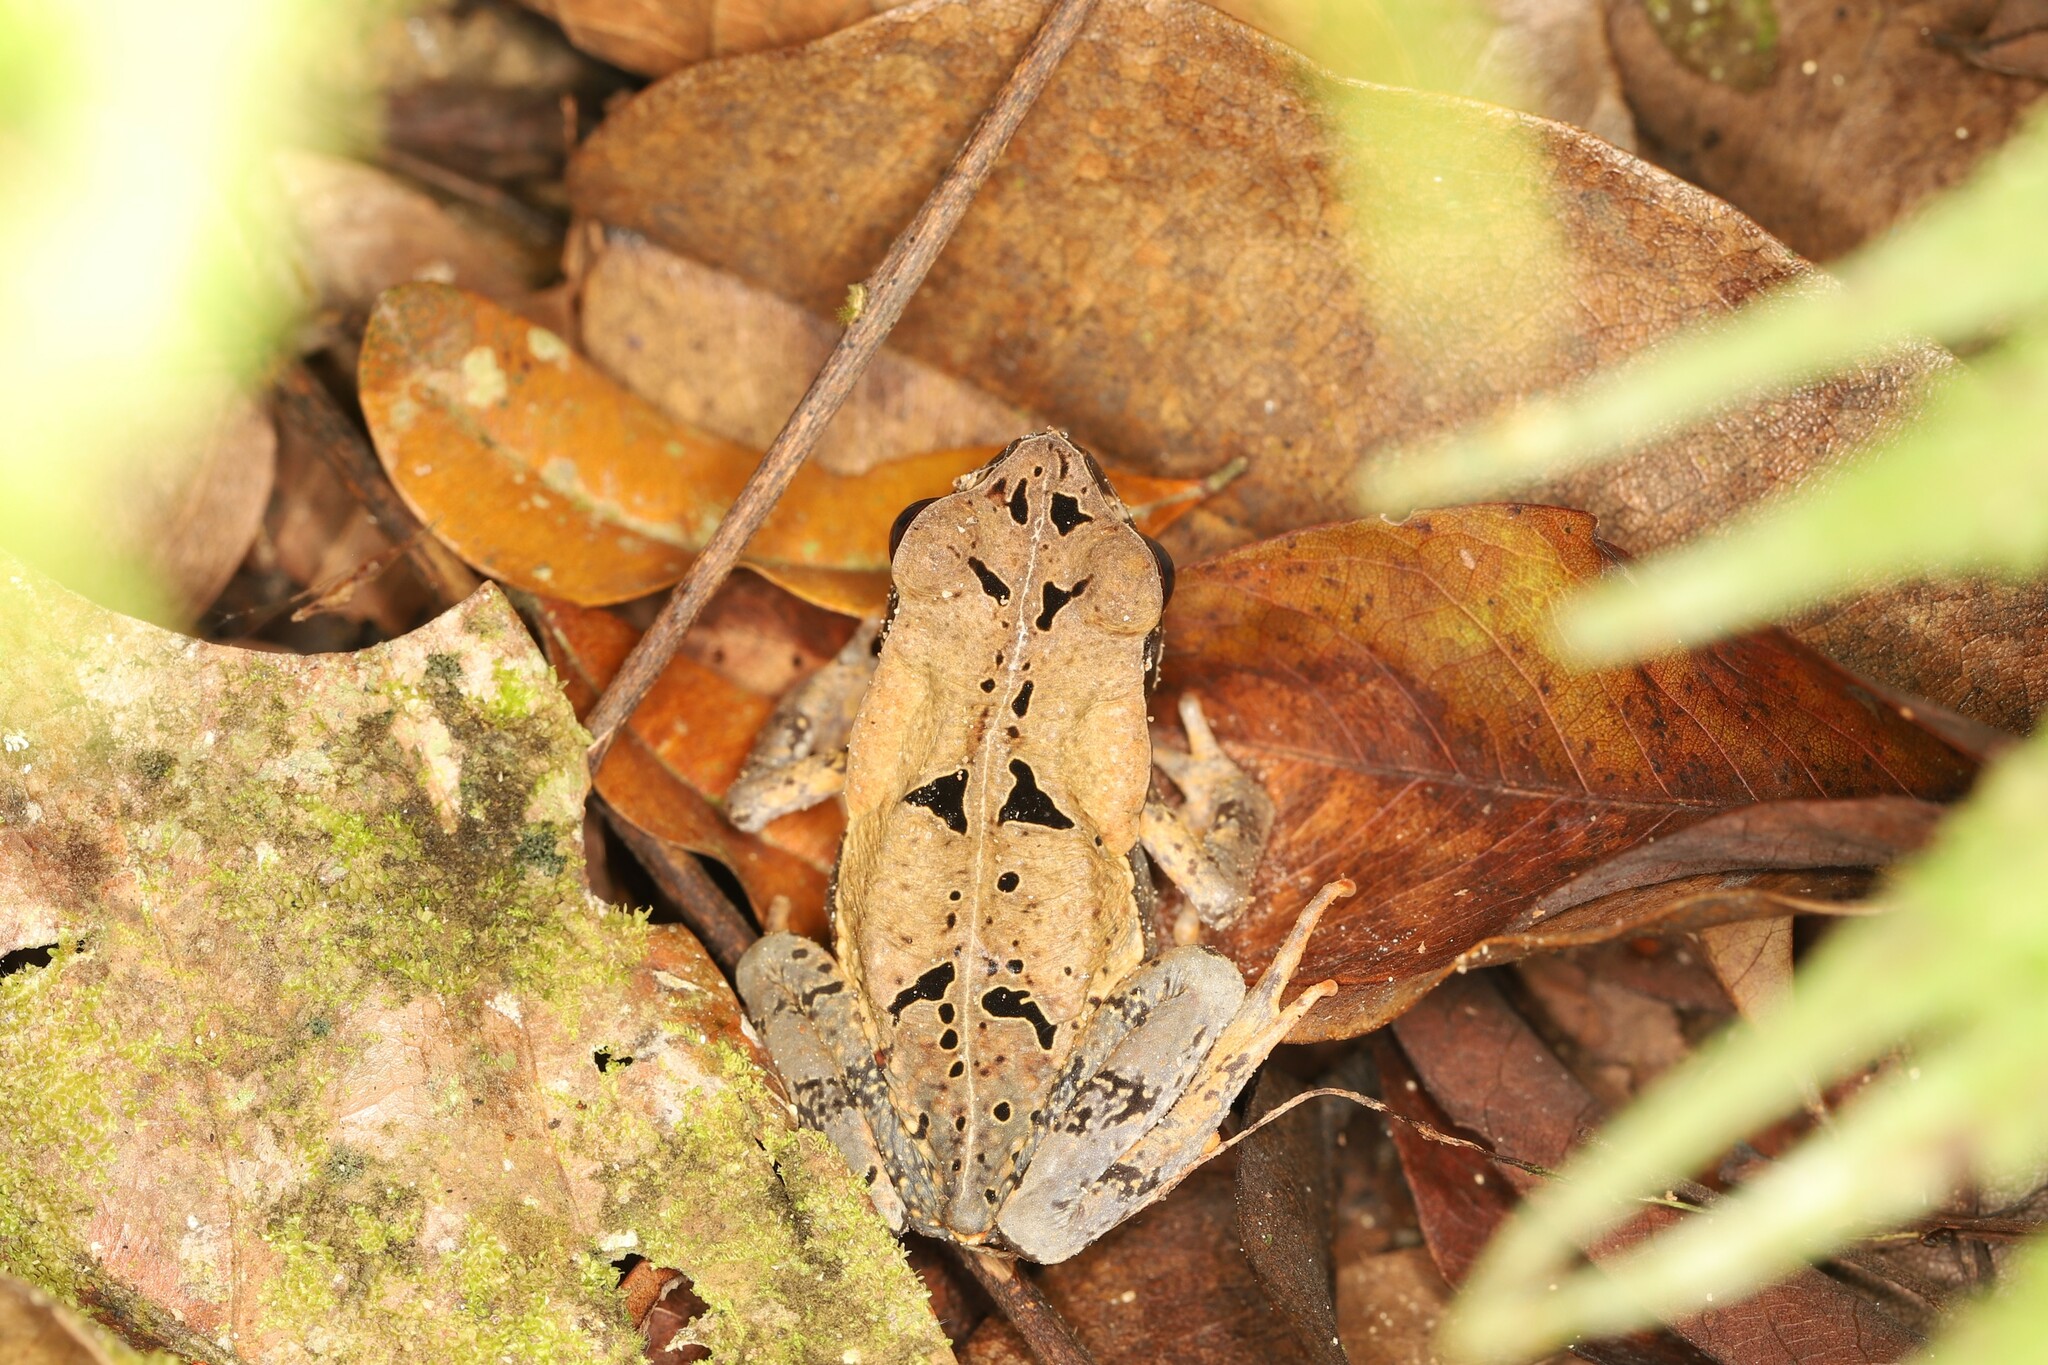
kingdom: Animalia
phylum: Chordata
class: Amphibia
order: Anura
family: Bufonidae
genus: Rhaebo
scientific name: Rhaebo haematiticus
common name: Truando toad
